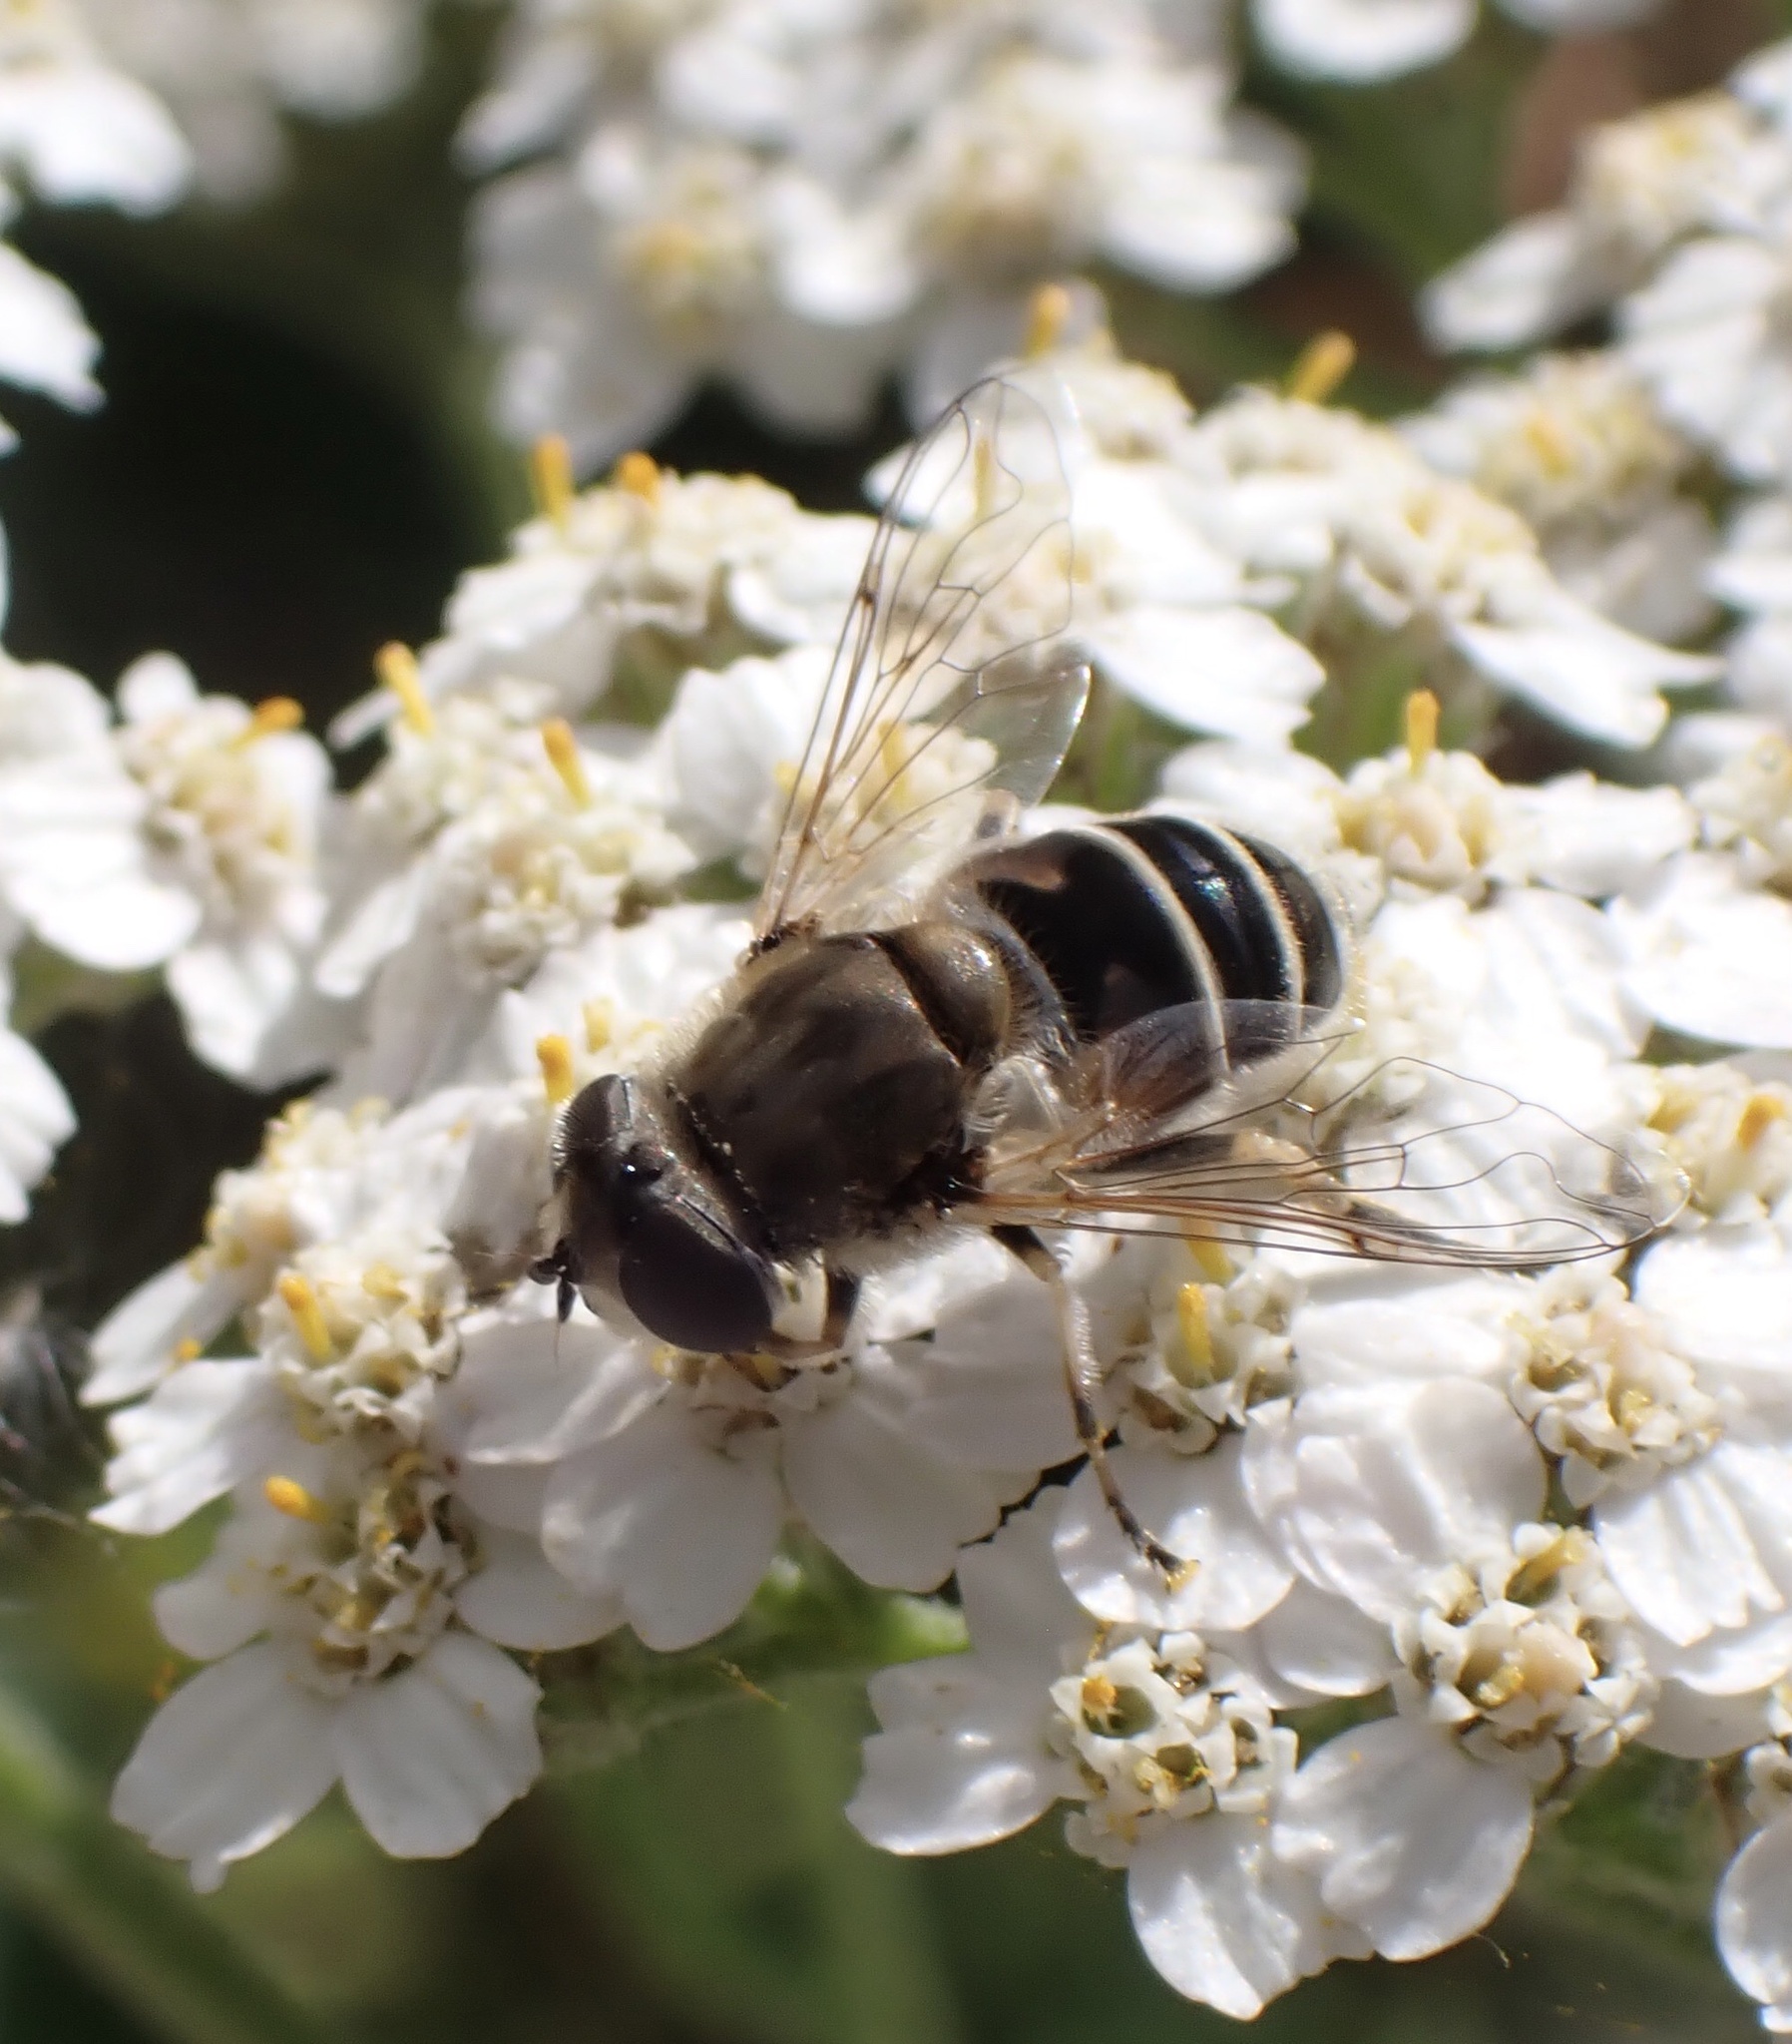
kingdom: Animalia
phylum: Arthropoda
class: Insecta
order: Diptera
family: Syrphidae
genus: Eristalis
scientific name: Eristalis nemorum
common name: Orange-spined drone fly
